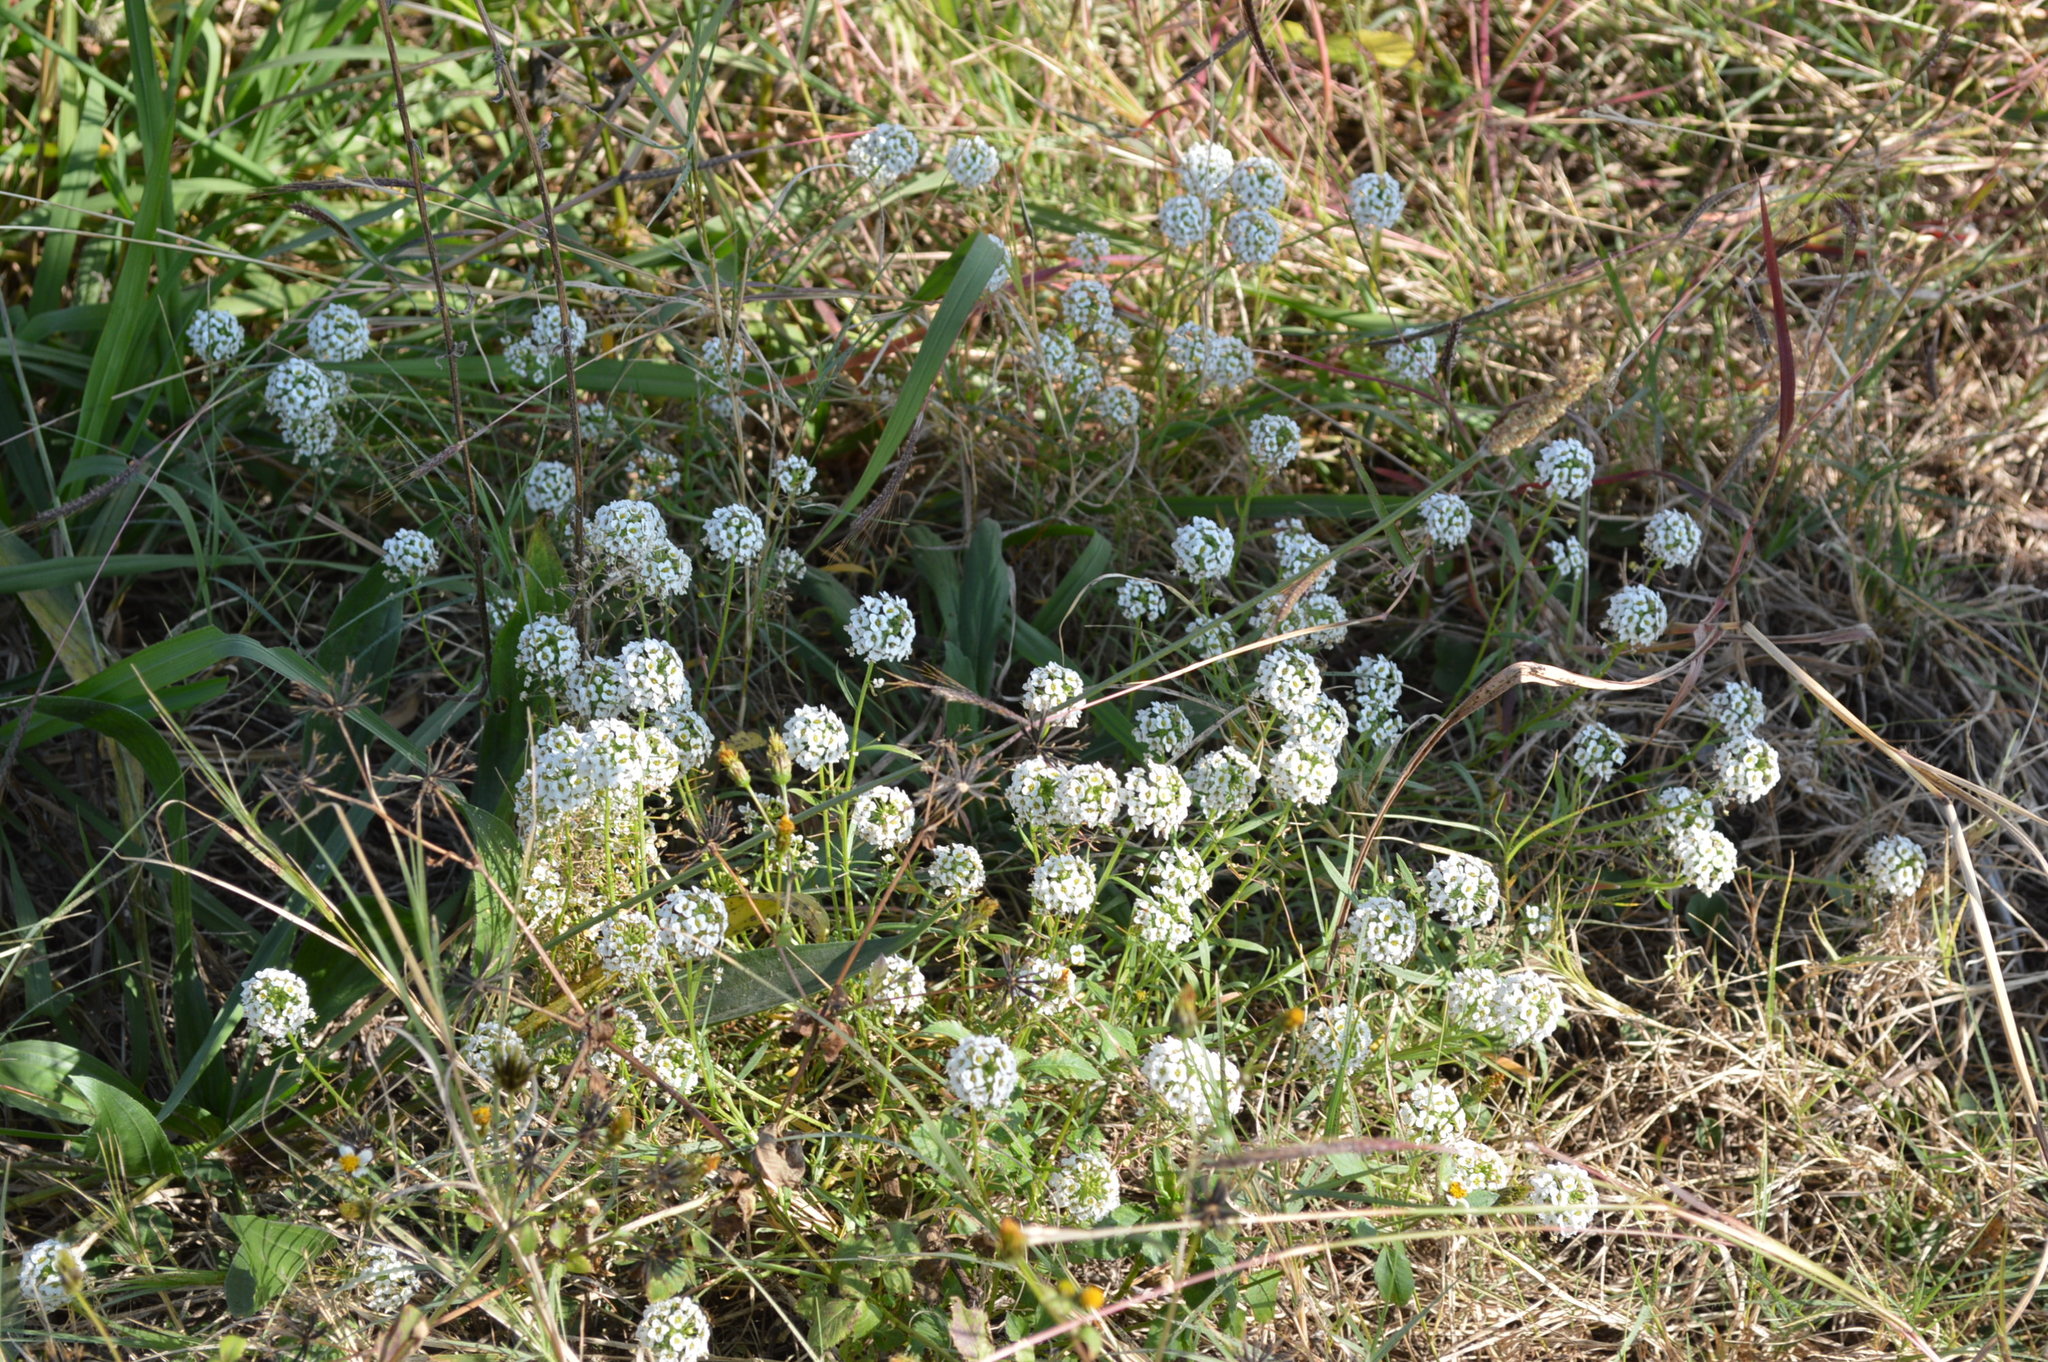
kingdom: Plantae
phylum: Tracheophyta
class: Magnoliopsida
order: Brassicales
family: Brassicaceae
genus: Lobularia
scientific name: Lobularia maritima
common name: Sweet alison
